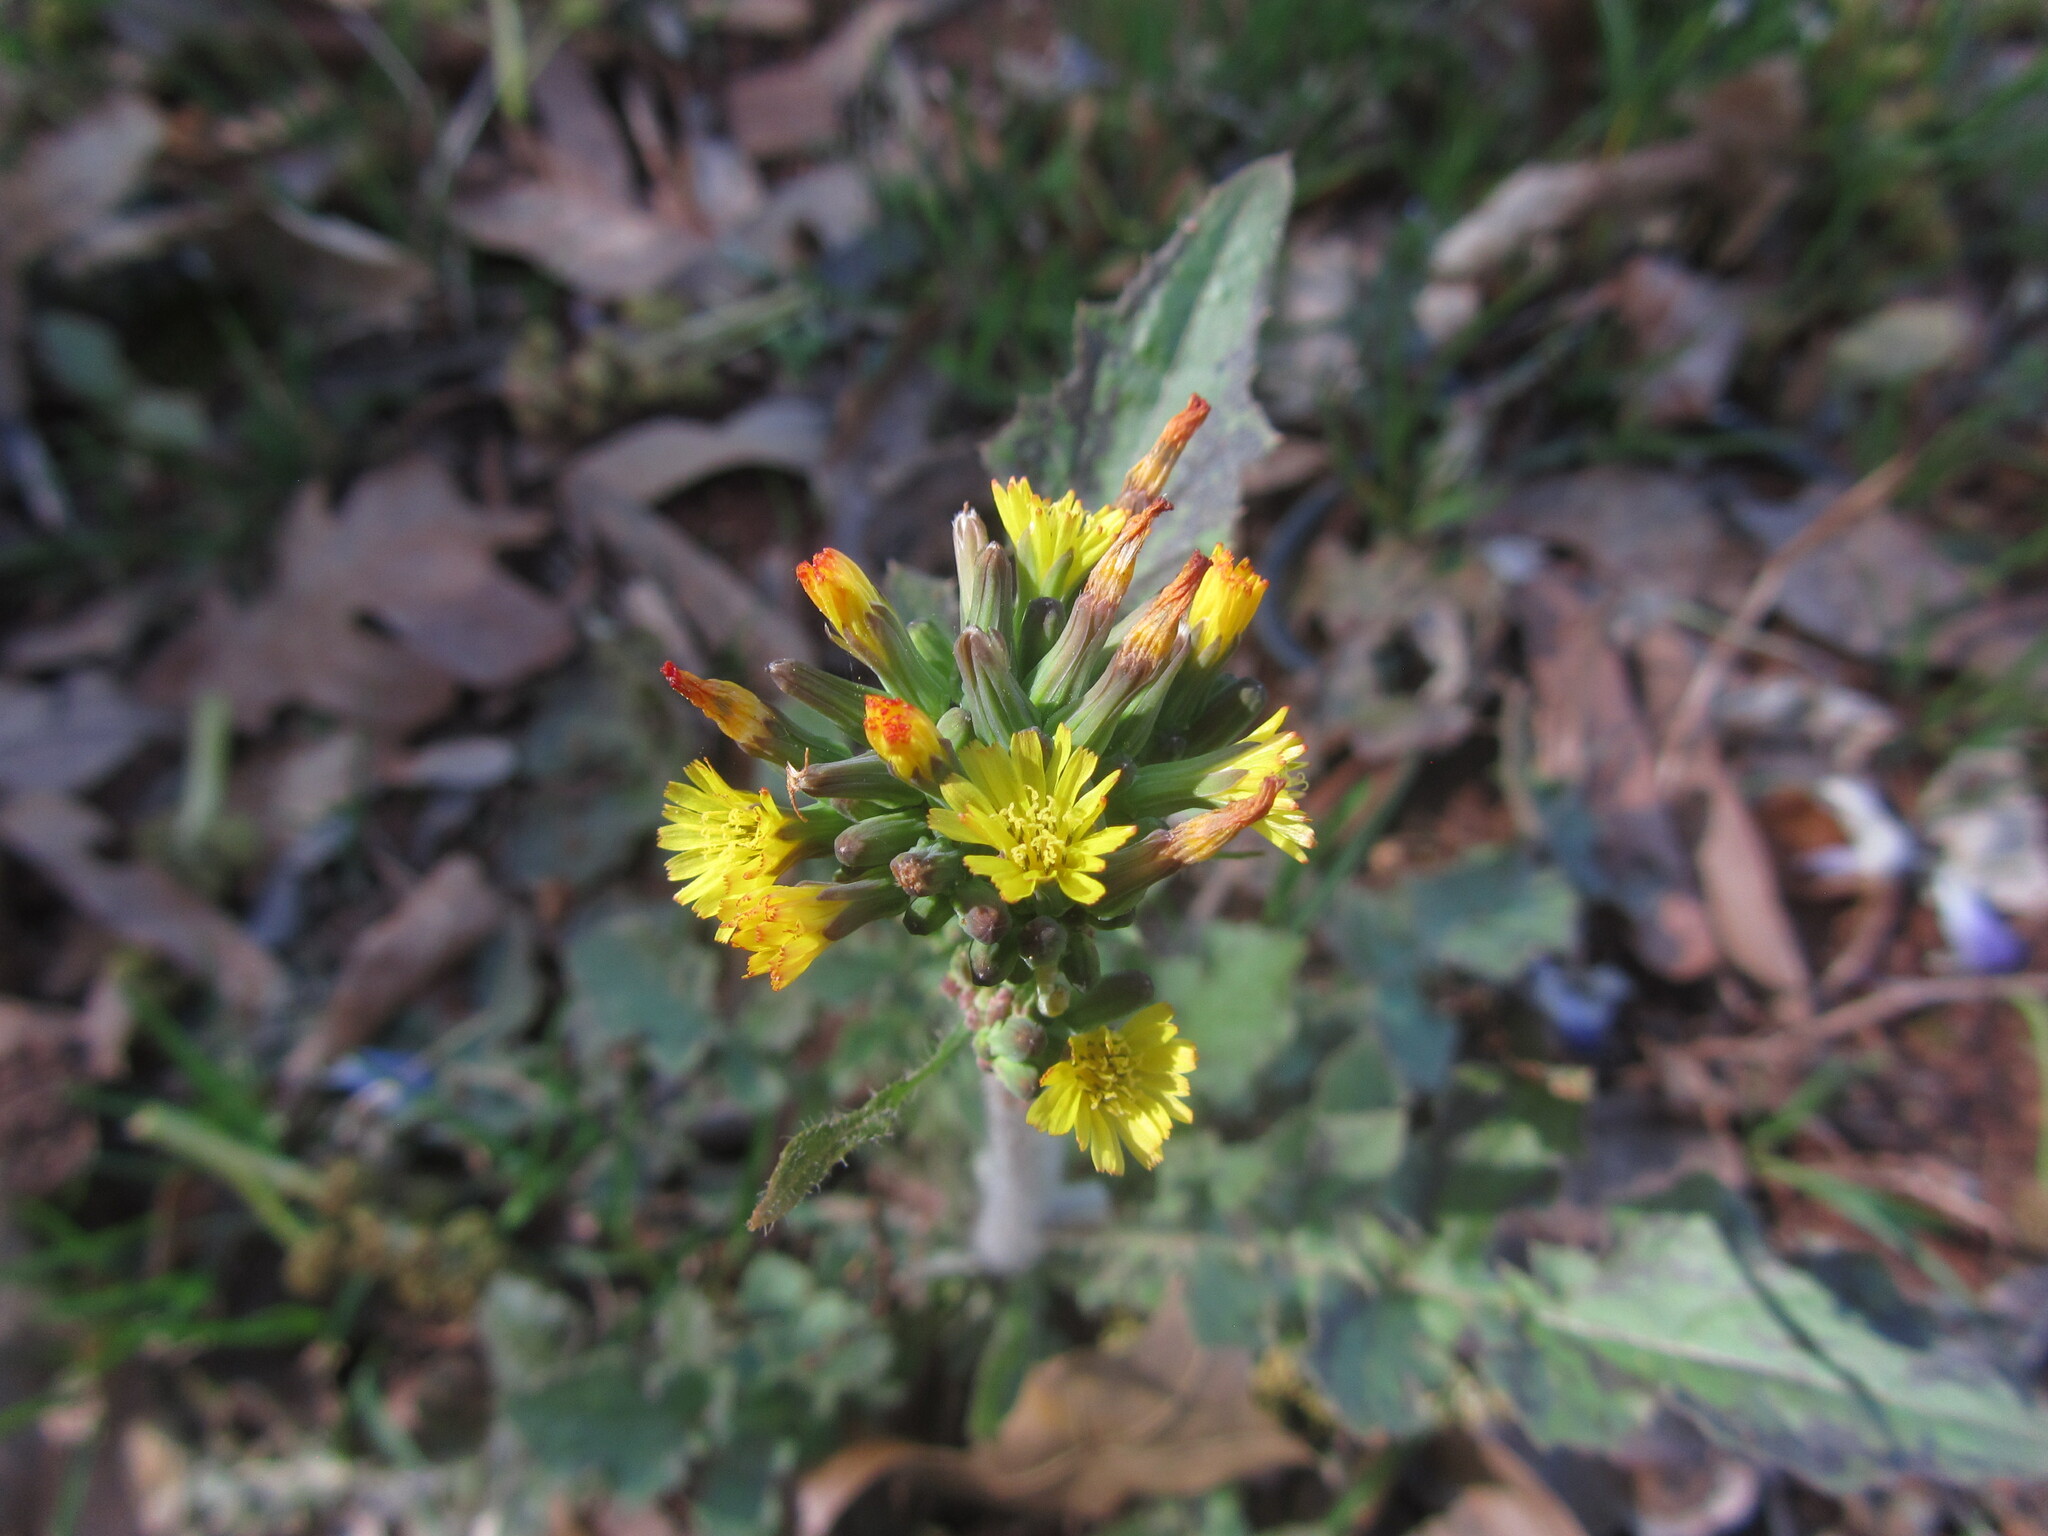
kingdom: Plantae
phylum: Tracheophyta
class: Magnoliopsida
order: Asterales
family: Asteraceae
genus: Youngia
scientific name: Youngia japonica
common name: Oriental false hawksbeard
